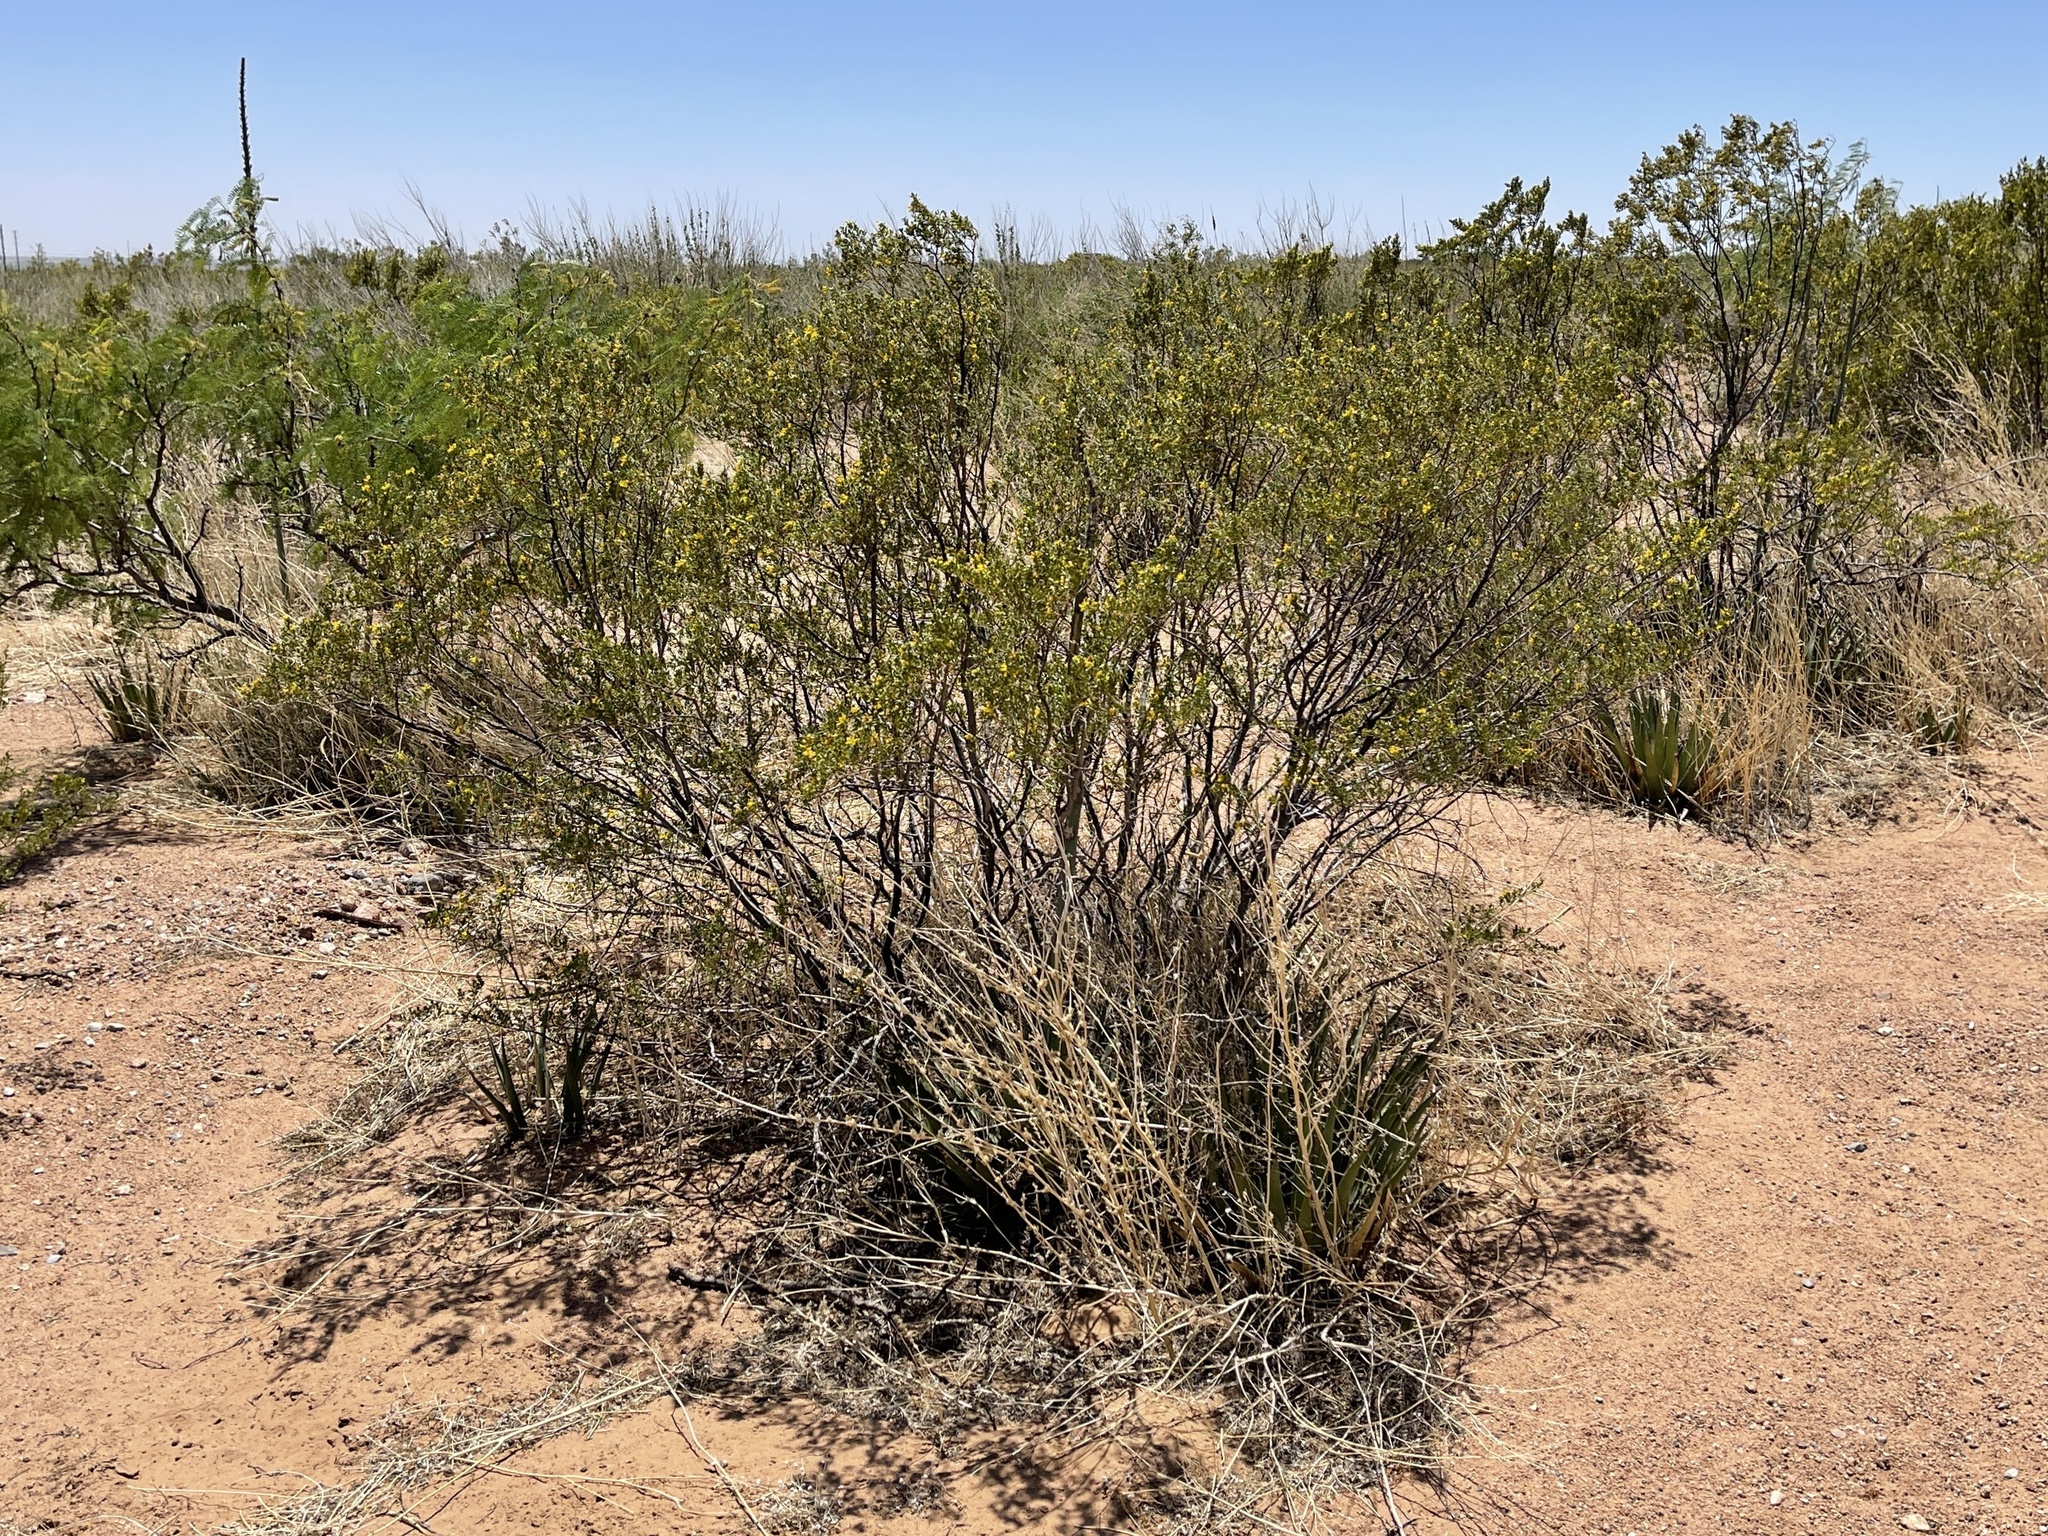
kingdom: Plantae
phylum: Tracheophyta
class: Magnoliopsida
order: Zygophyllales
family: Zygophyllaceae
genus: Larrea
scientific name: Larrea tridentata
